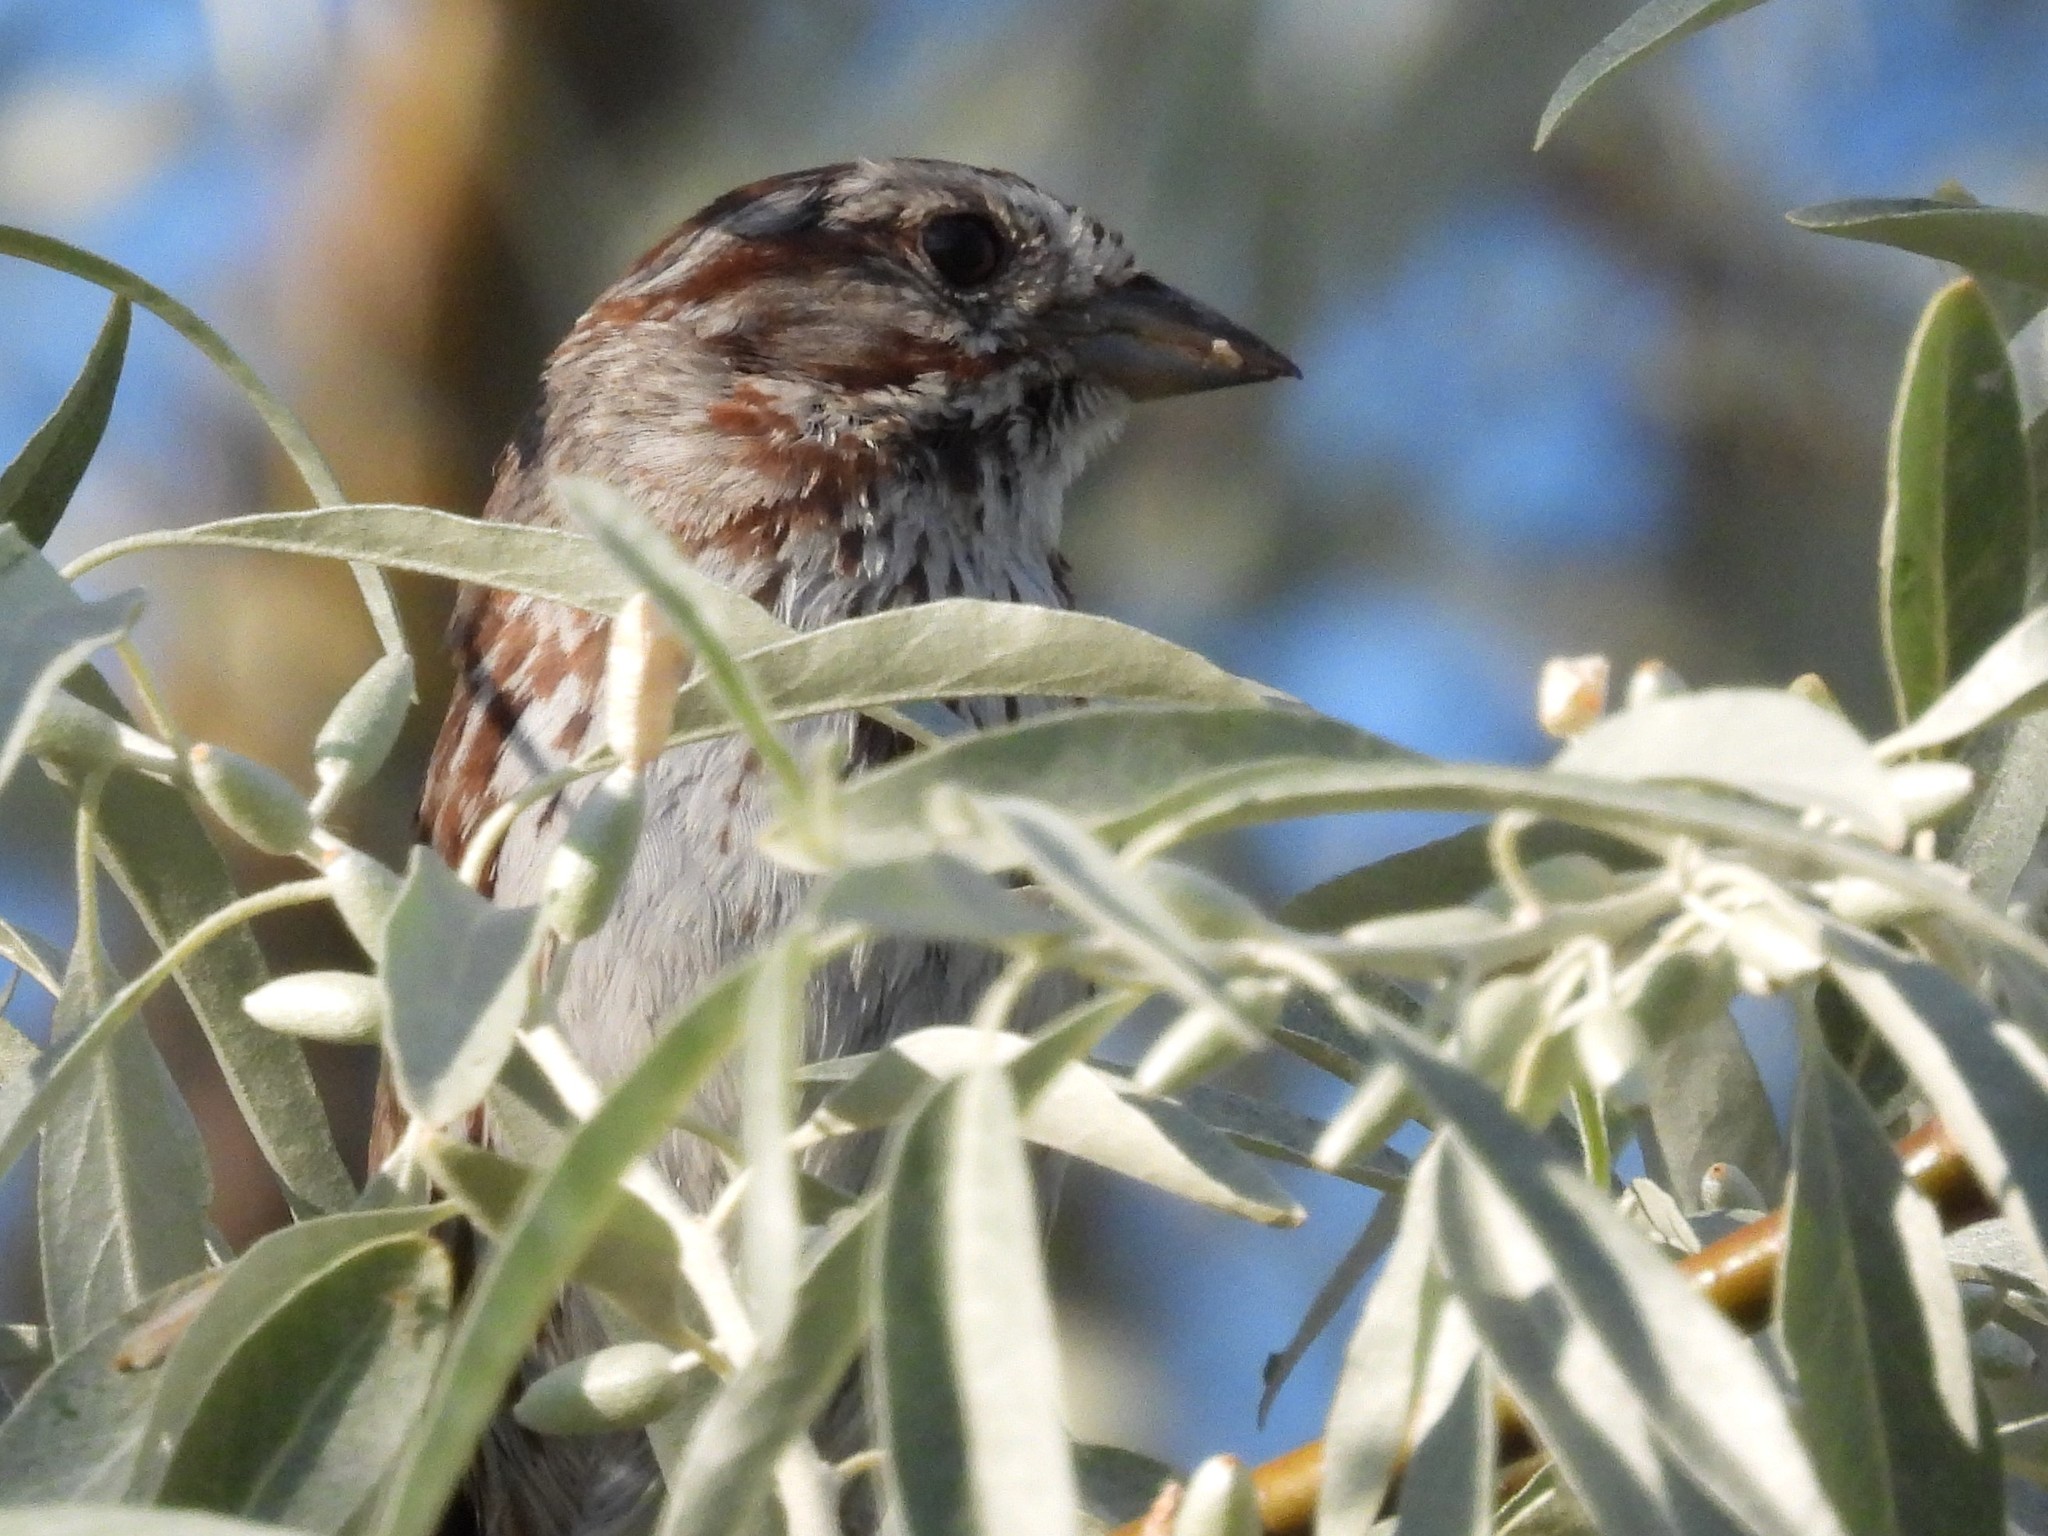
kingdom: Animalia
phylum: Chordata
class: Aves
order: Passeriformes
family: Passerellidae
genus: Melospiza
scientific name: Melospiza melodia
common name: Song sparrow
